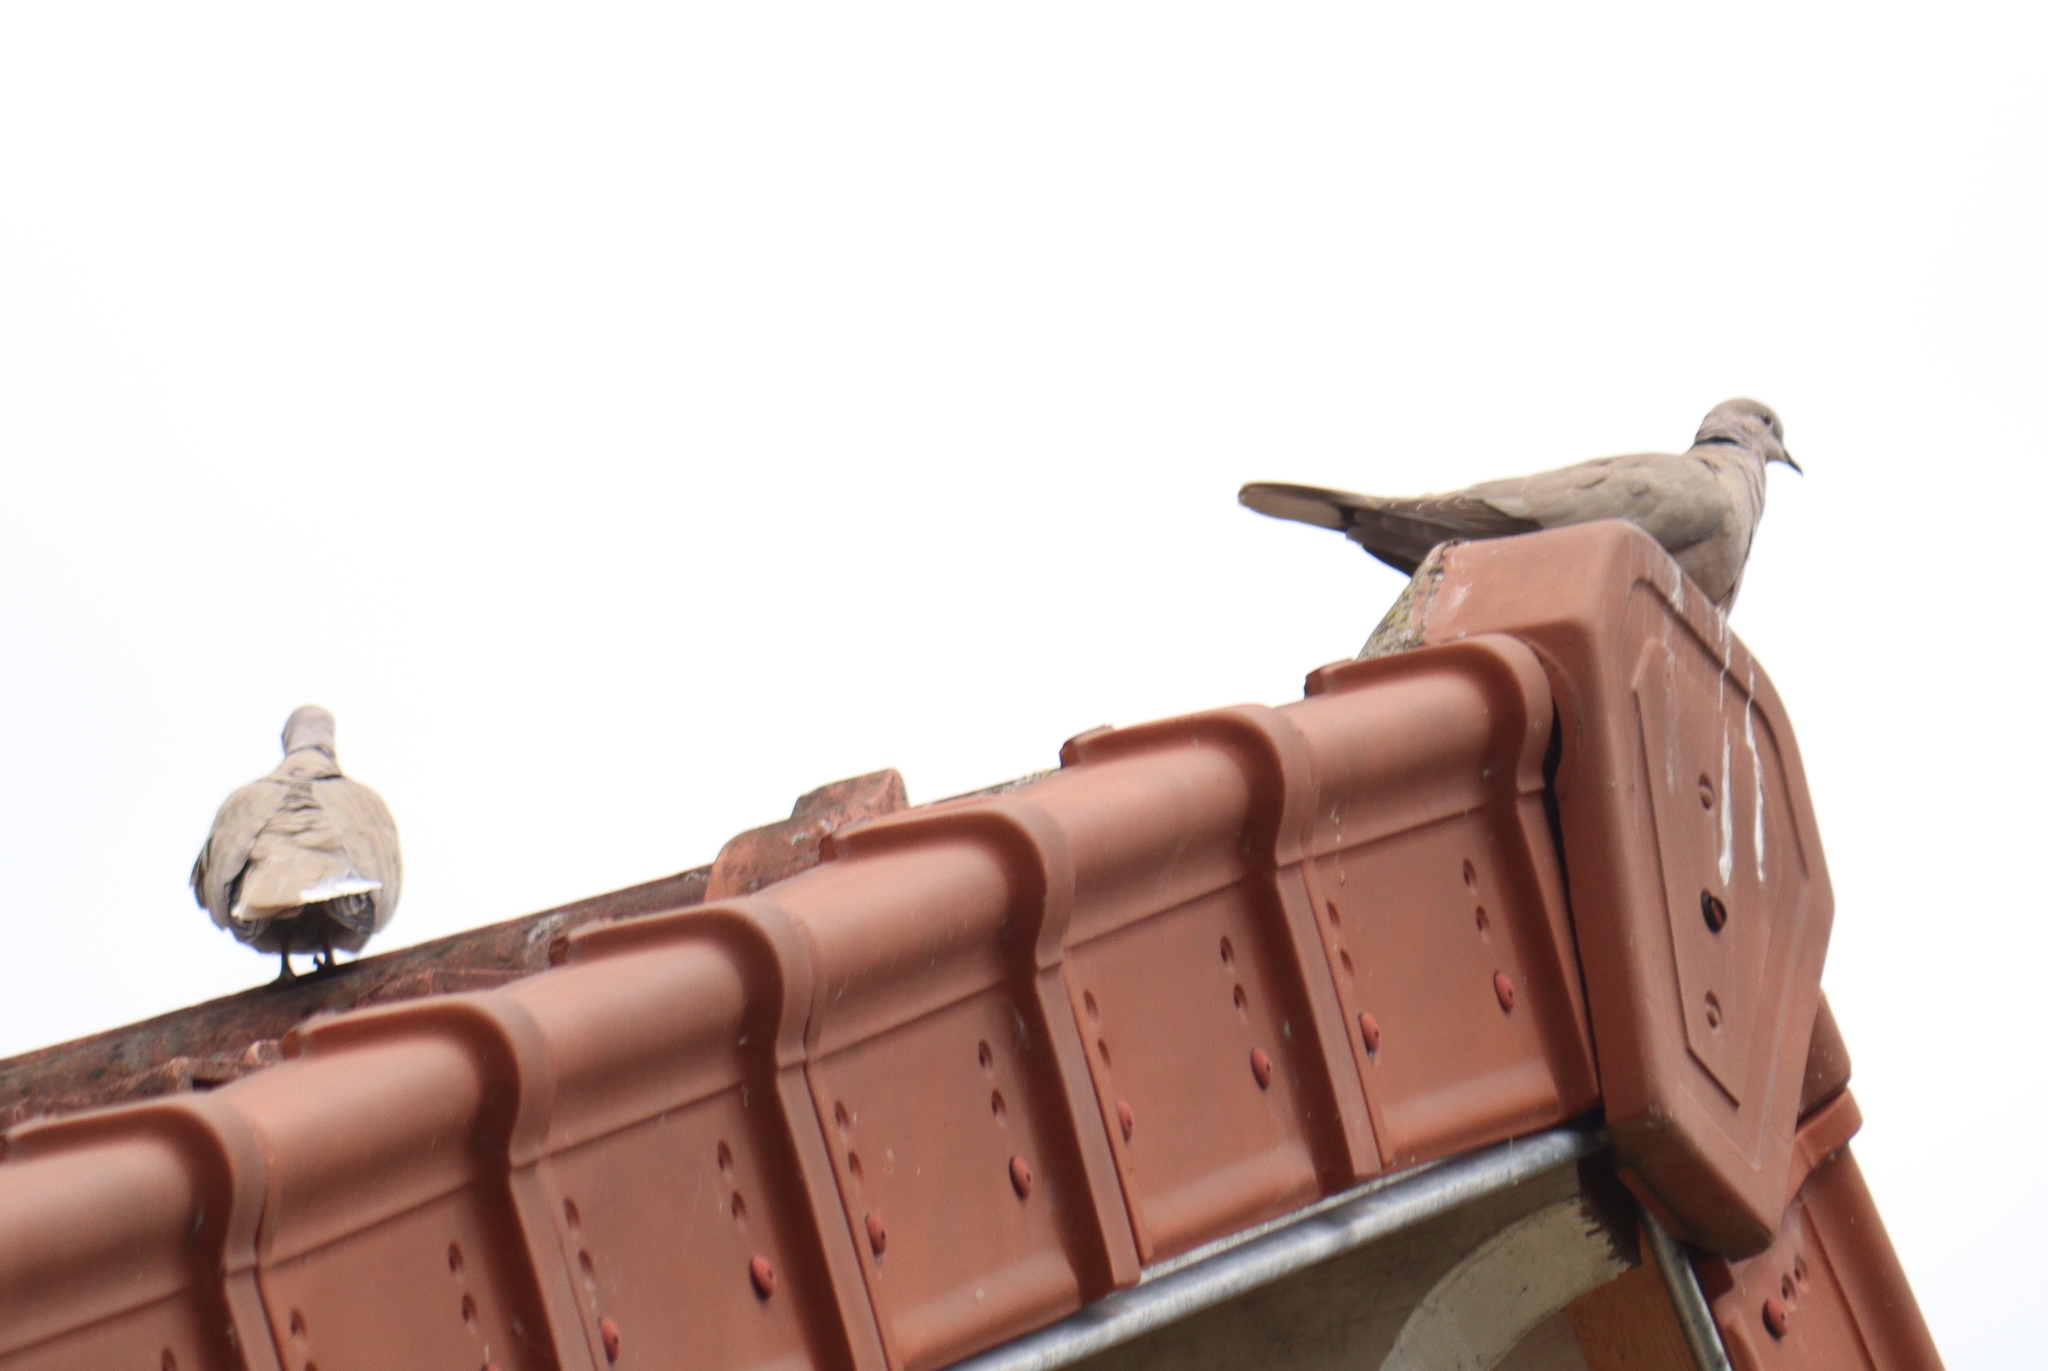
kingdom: Animalia
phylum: Chordata
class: Aves
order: Columbiformes
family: Columbidae
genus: Streptopelia
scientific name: Streptopelia decaocto
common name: Eurasian collared dove
